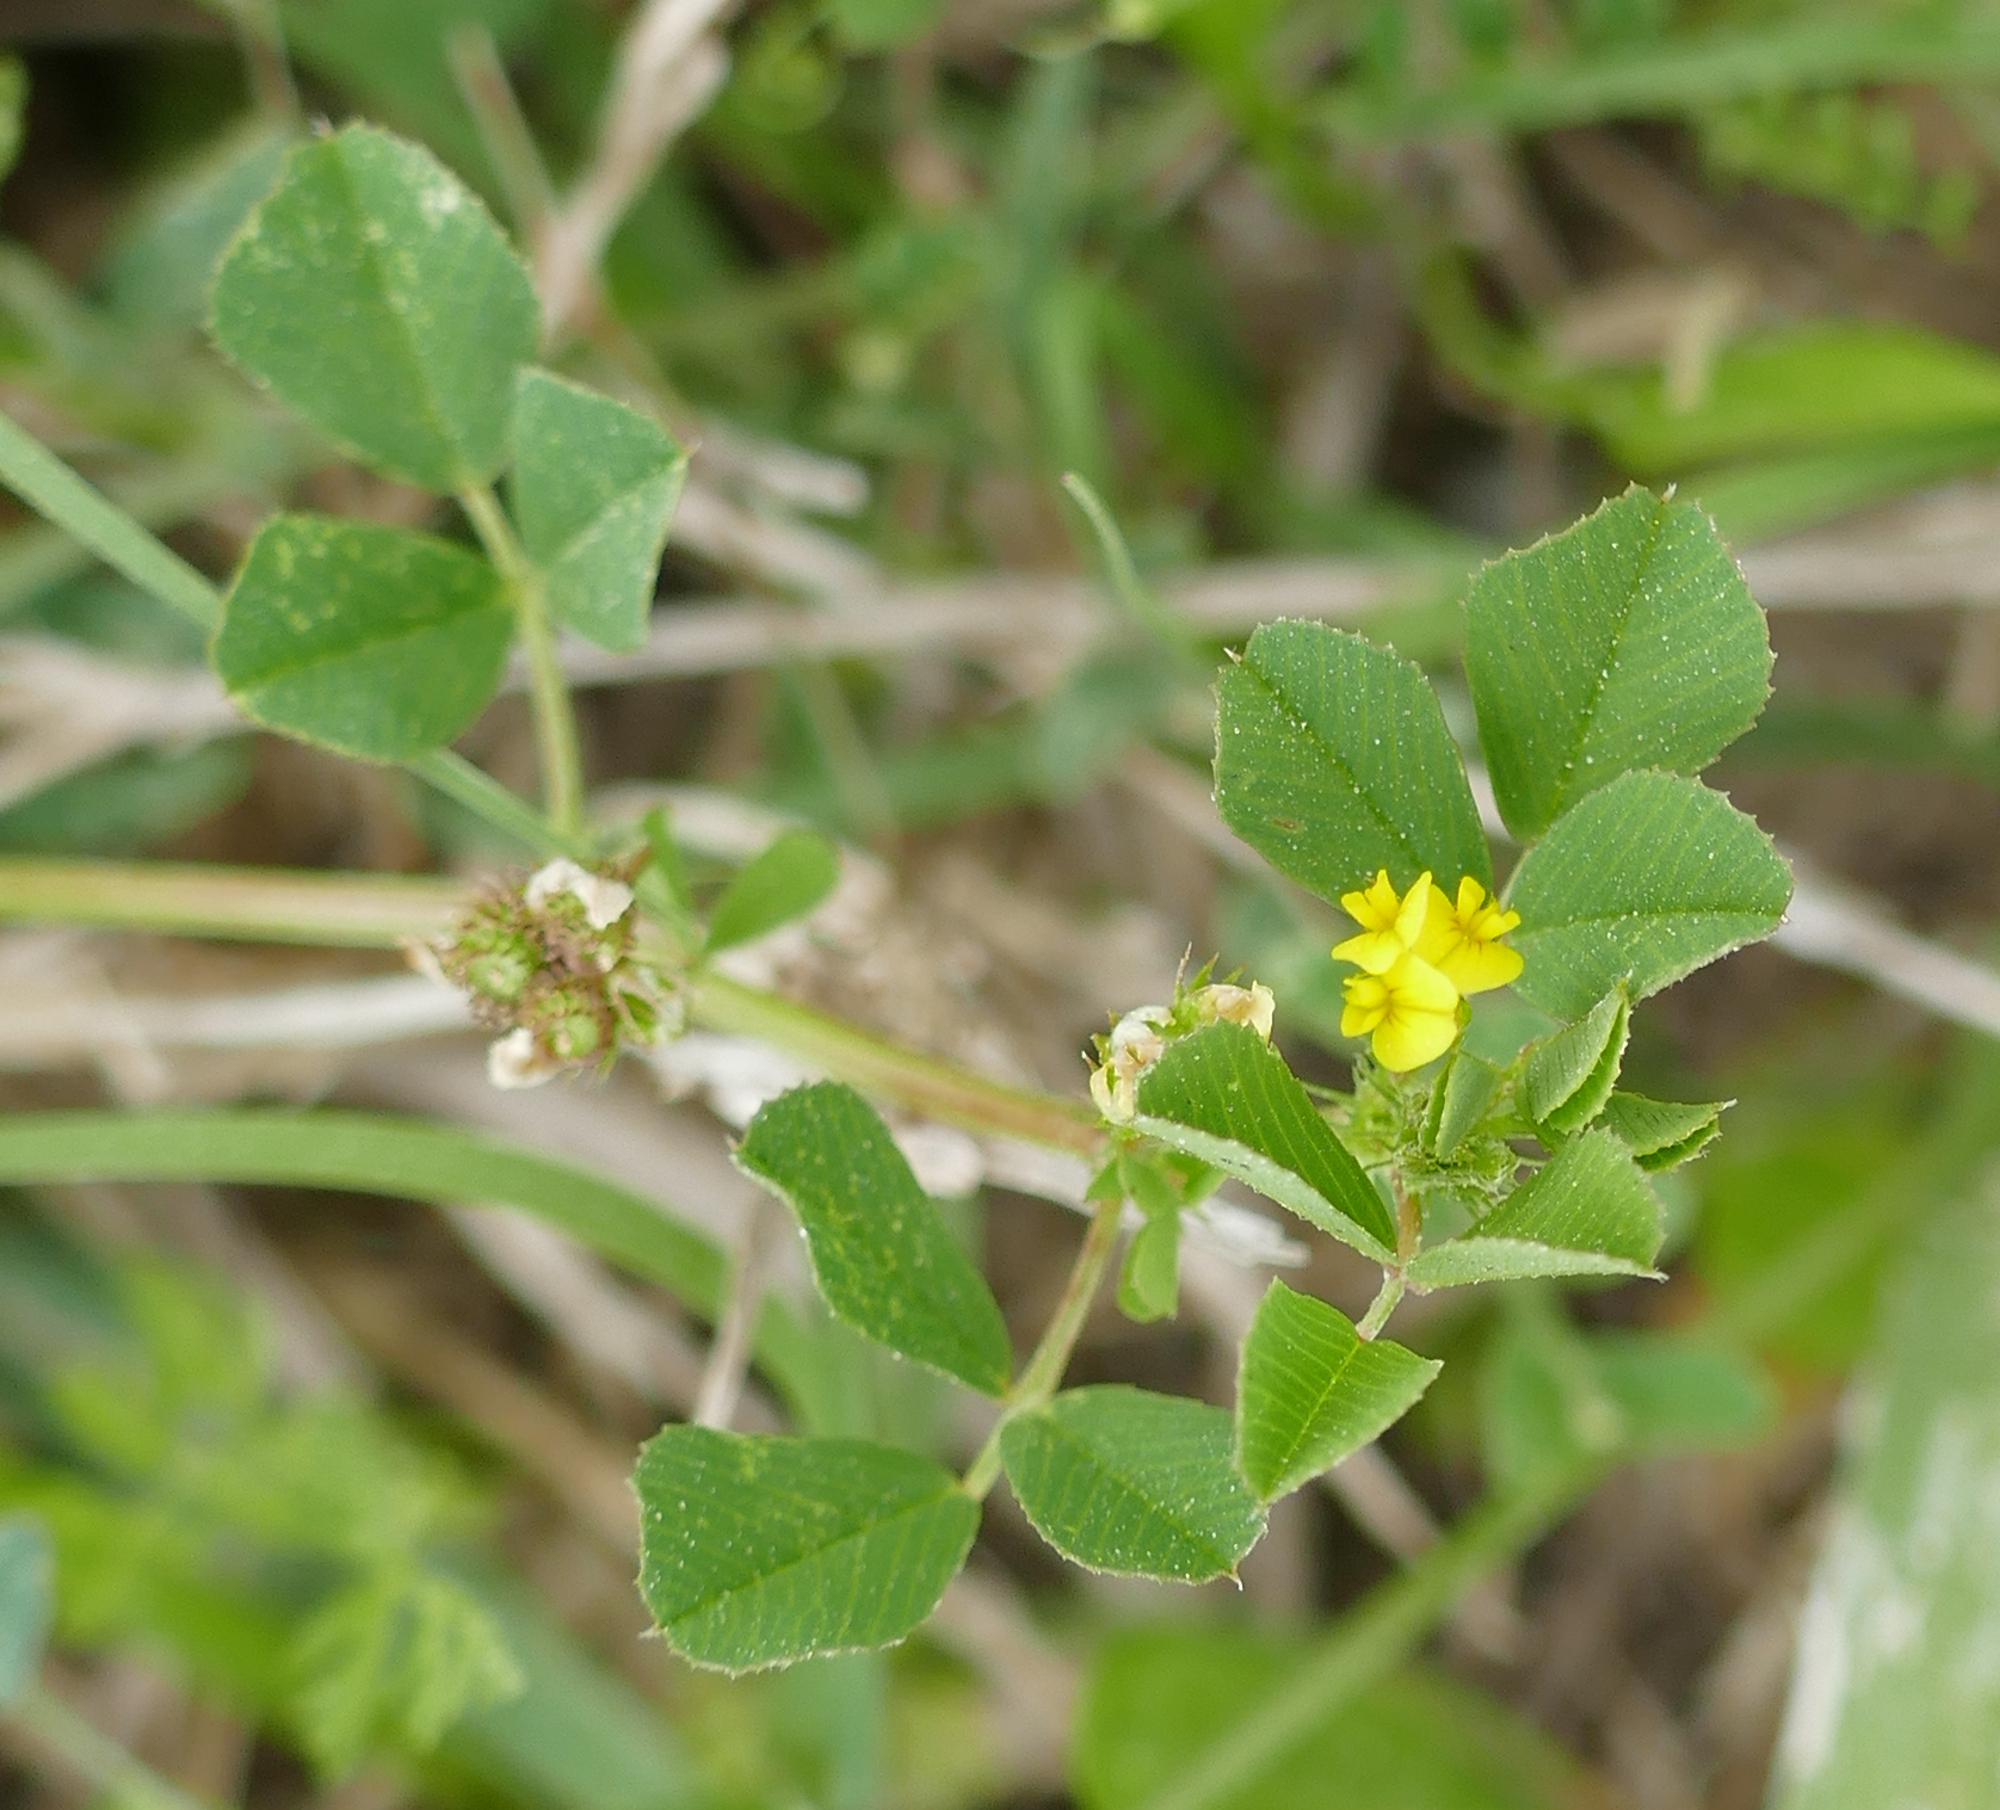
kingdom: Plantae
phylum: Tracheophyta
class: Magnoliopsida
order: Fabales
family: Fabaceae
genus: Medicago
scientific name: Medicago polymorpha
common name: Burclover
